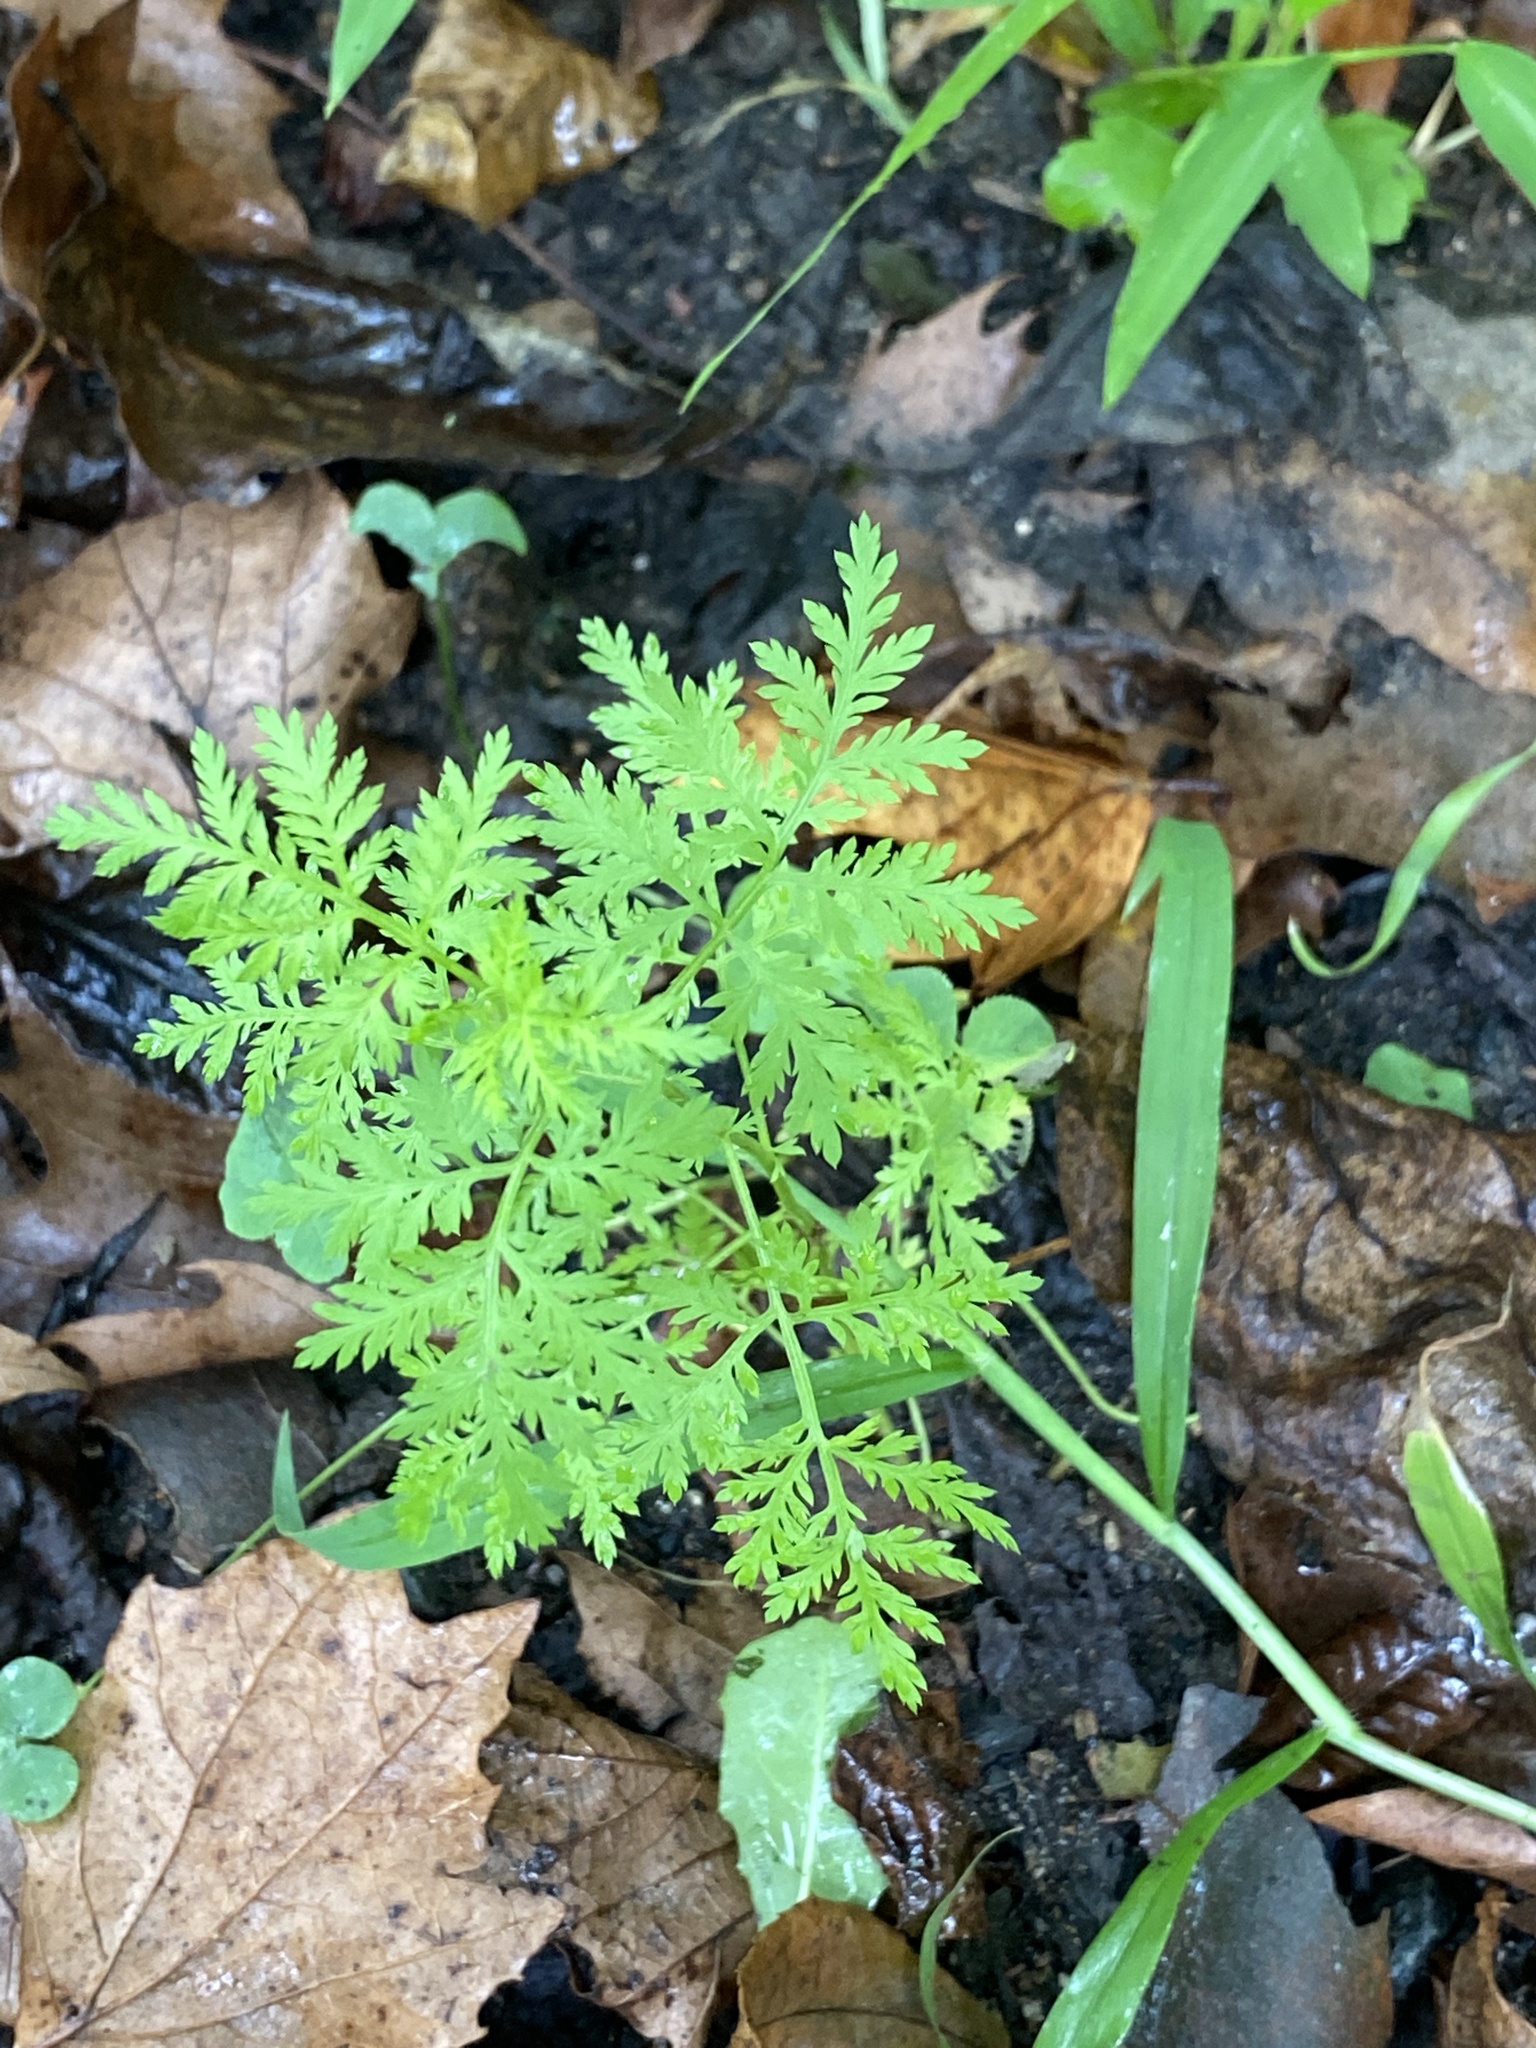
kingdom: Plantae
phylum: Tracheophyta
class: Magnoliopsida
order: Asterales
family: Asteraceae
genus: Artemisia
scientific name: Artemisia annua
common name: Sweet sagewort
